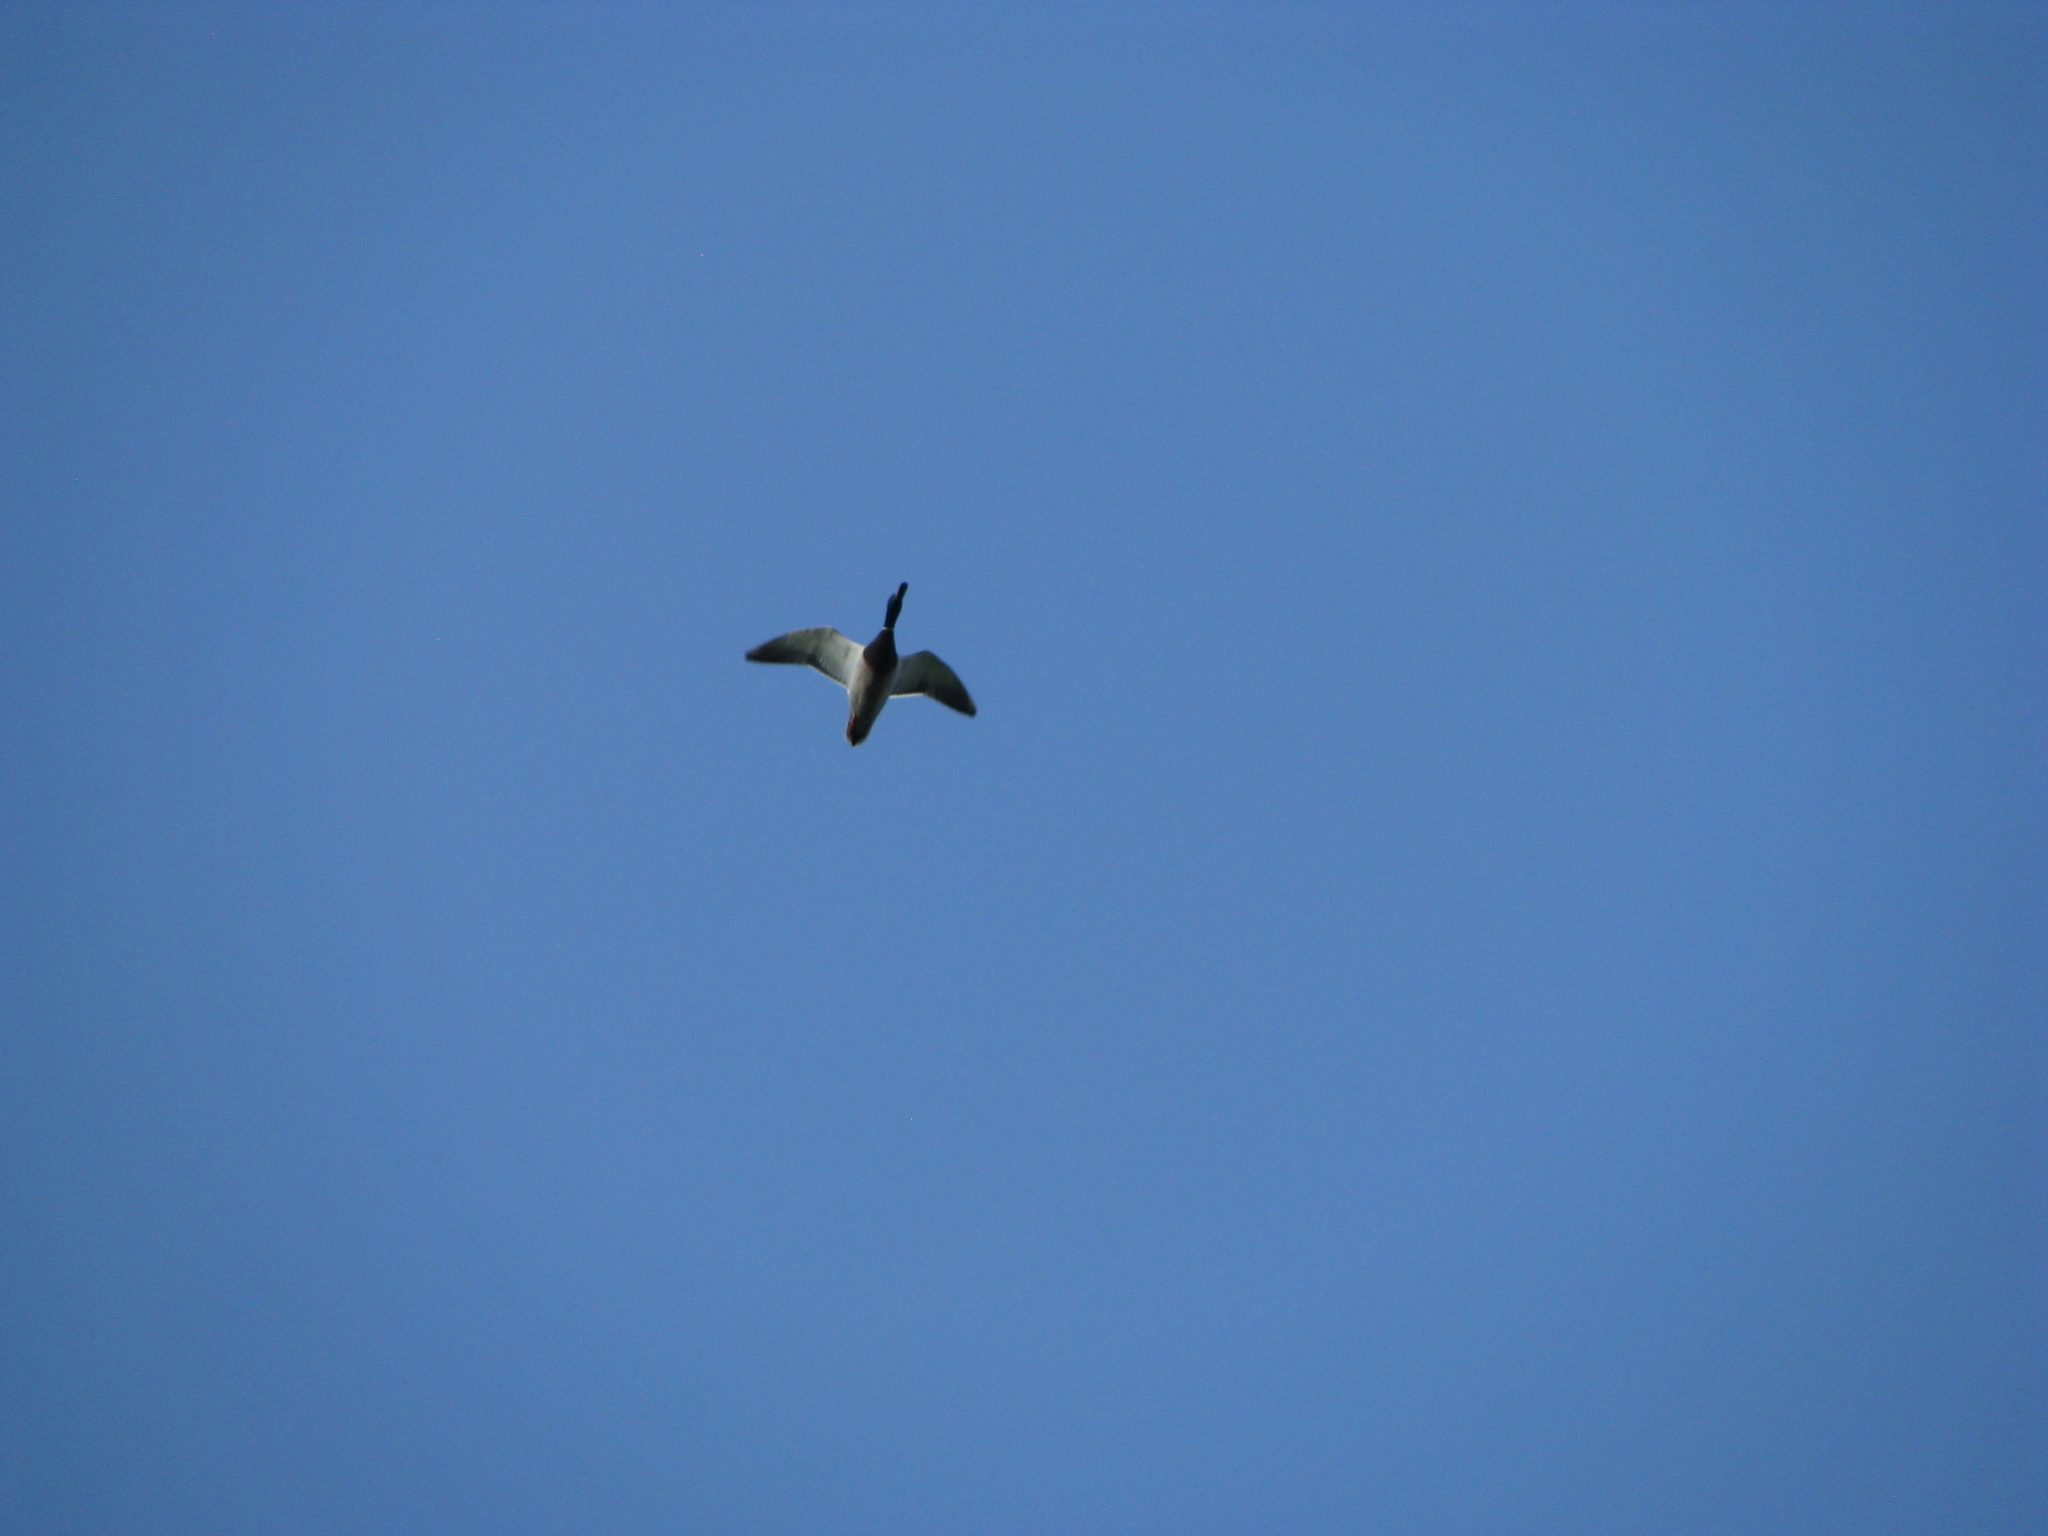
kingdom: Animalia
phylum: Chordata
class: Aves
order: Anseriformes
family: Anatidae
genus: Anas
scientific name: Anas platyrhynchos
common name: Mallard
